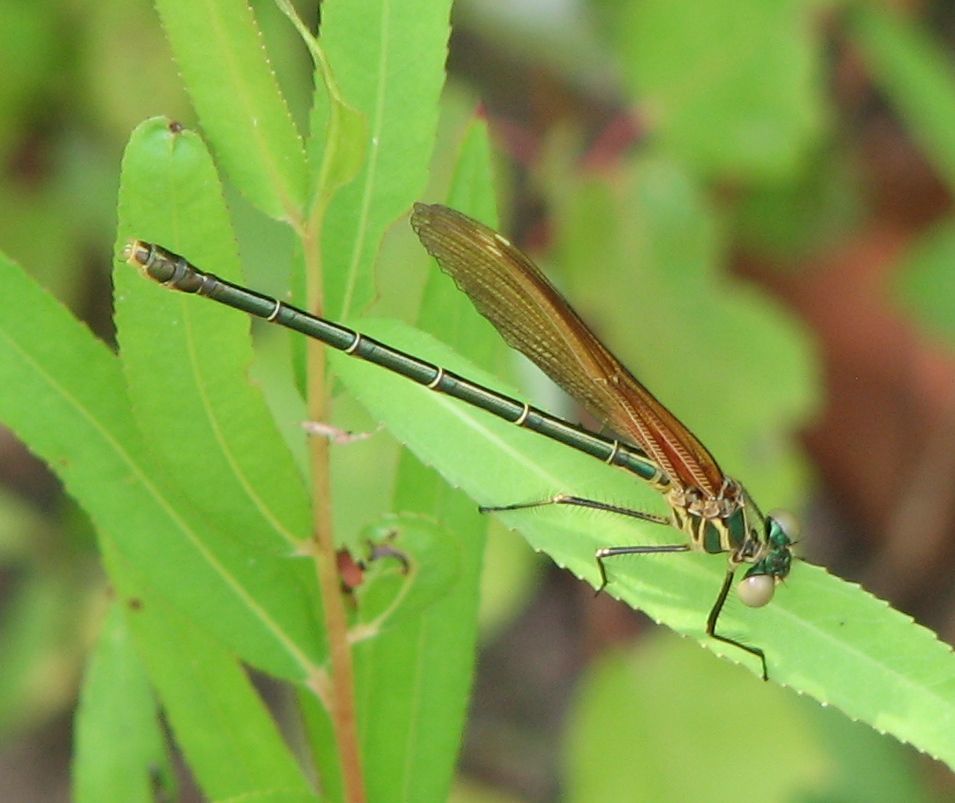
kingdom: Animalia
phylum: Arthropoda
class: Insecta
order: Odonata
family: Calopterygidae
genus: Hetaerina
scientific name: Hetaerina americana
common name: American rubyspot
